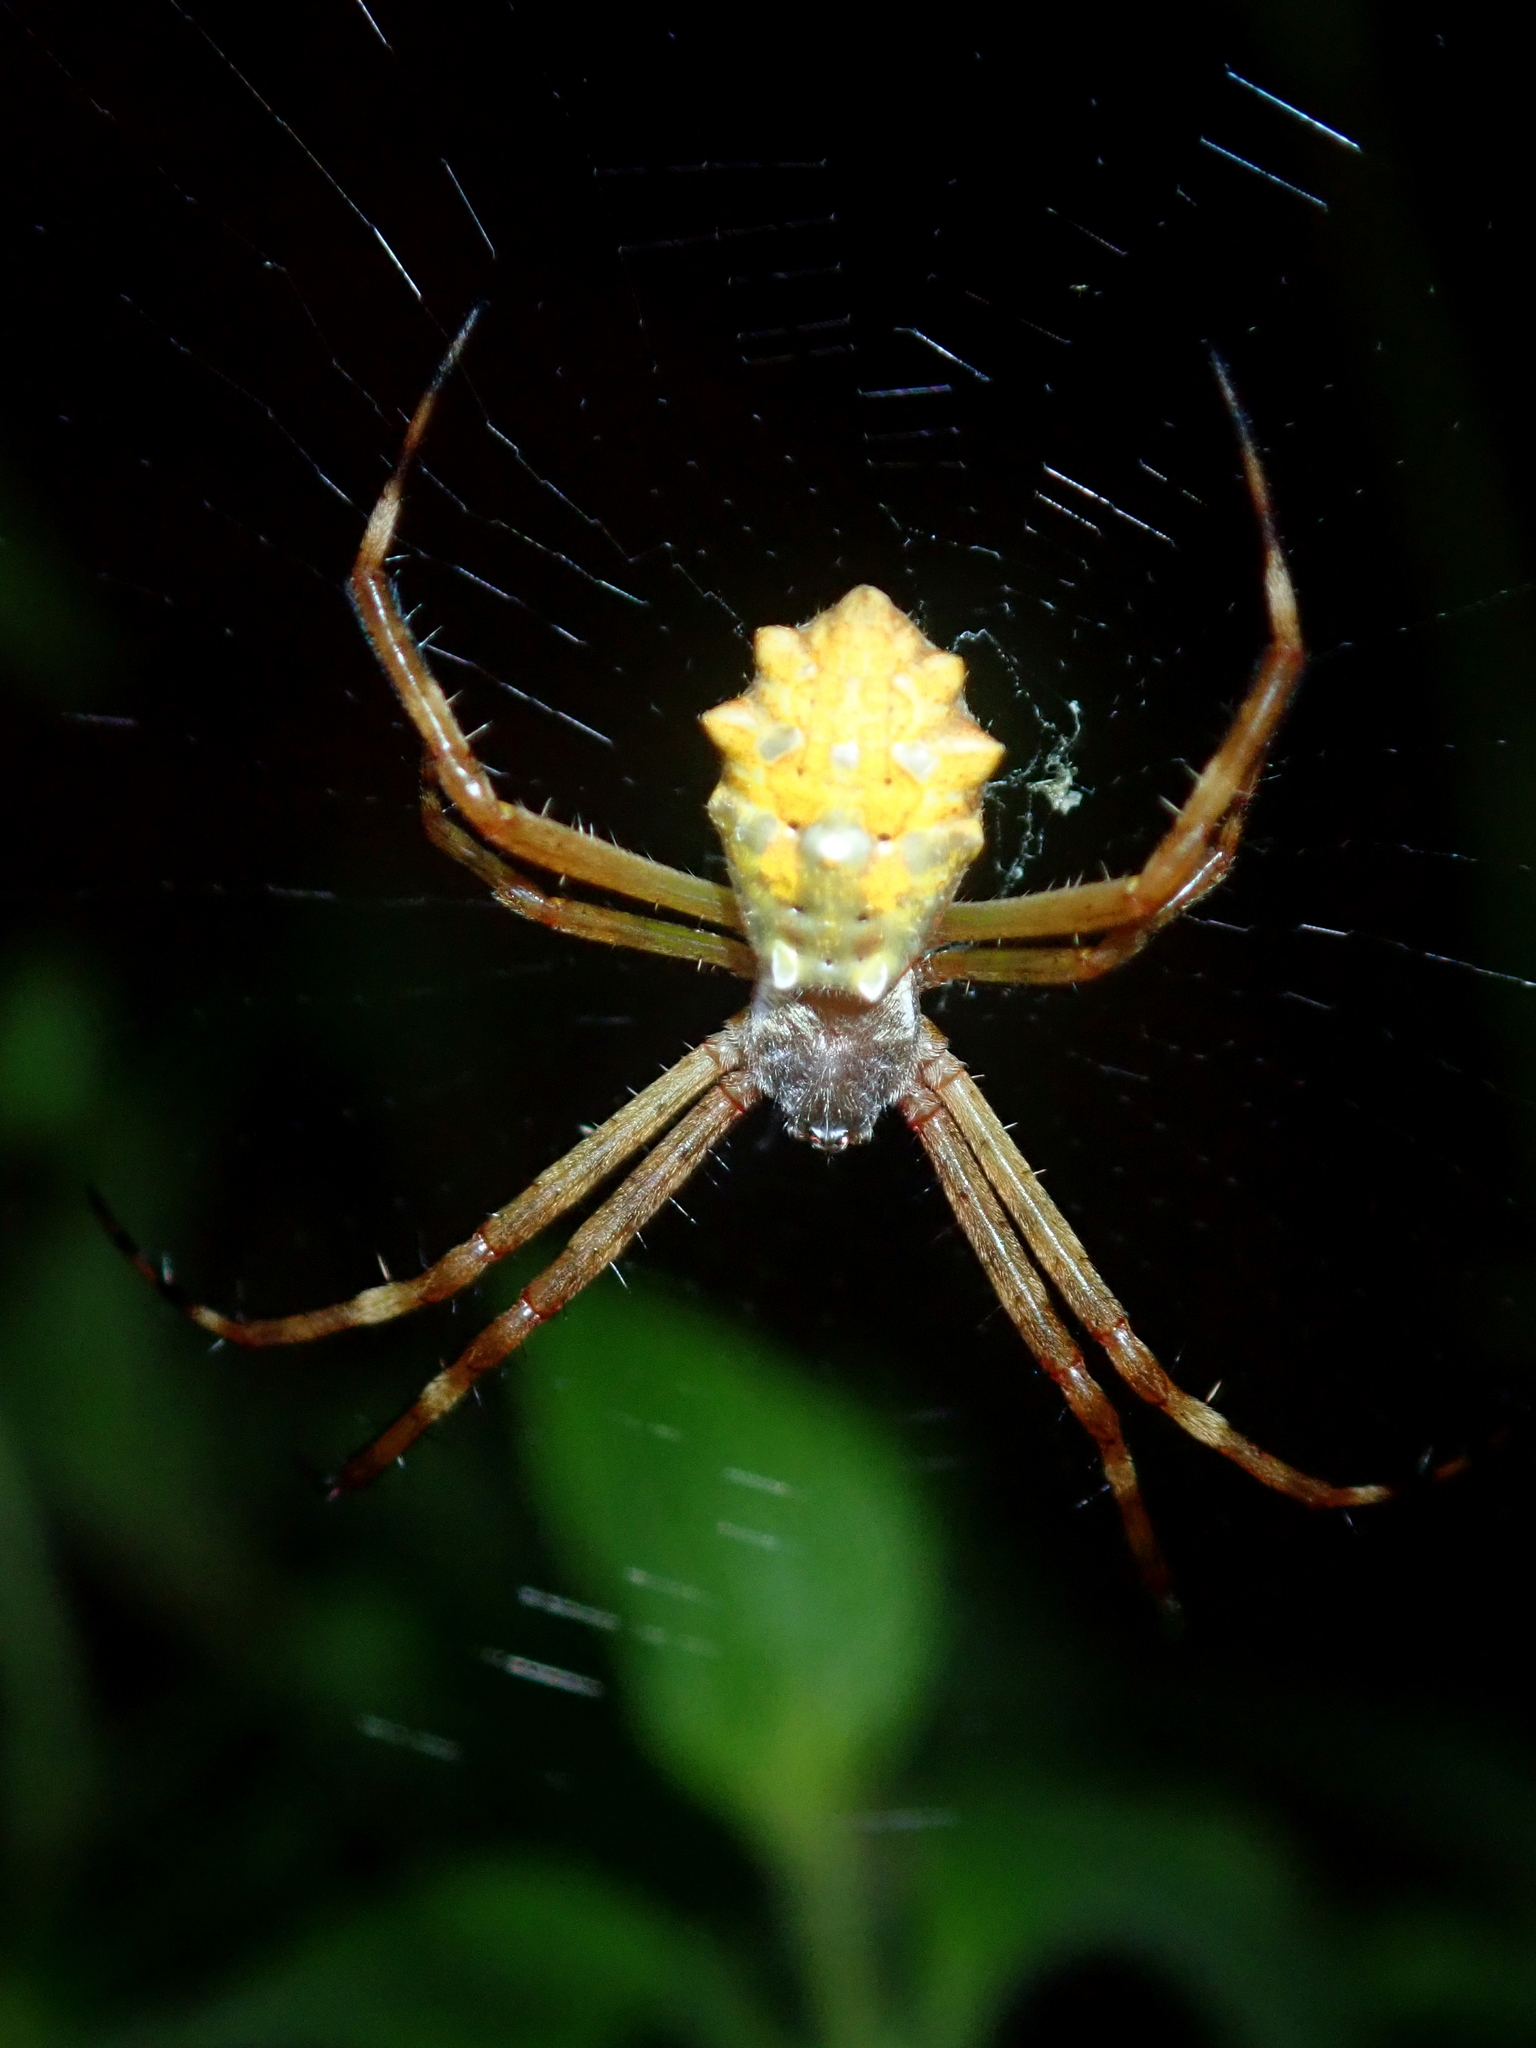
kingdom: Animalia
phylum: Arthropoda
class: Arachnida
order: Araneae
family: Araneidae
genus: Argiope
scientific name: Argiope argentata
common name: Orb weavers
